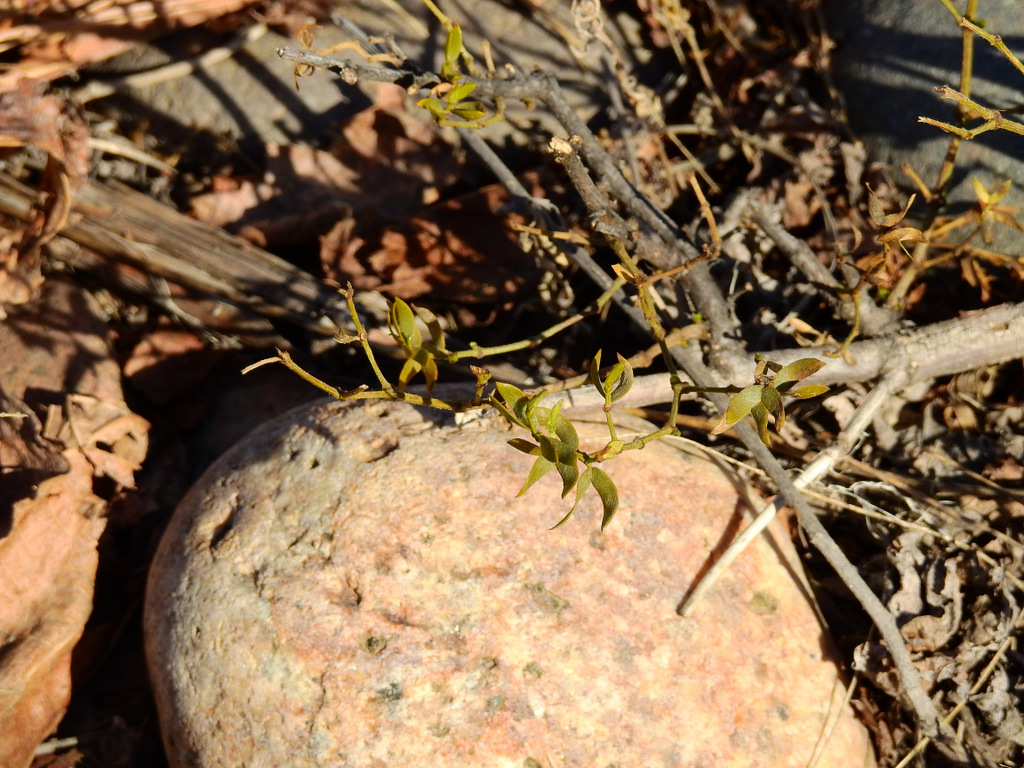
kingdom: Plantae
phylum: Tracheophyta
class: Magnoliopsida
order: Zygophyllales
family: Zygophyllaceae
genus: Larrea
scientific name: Larrea divaricata
